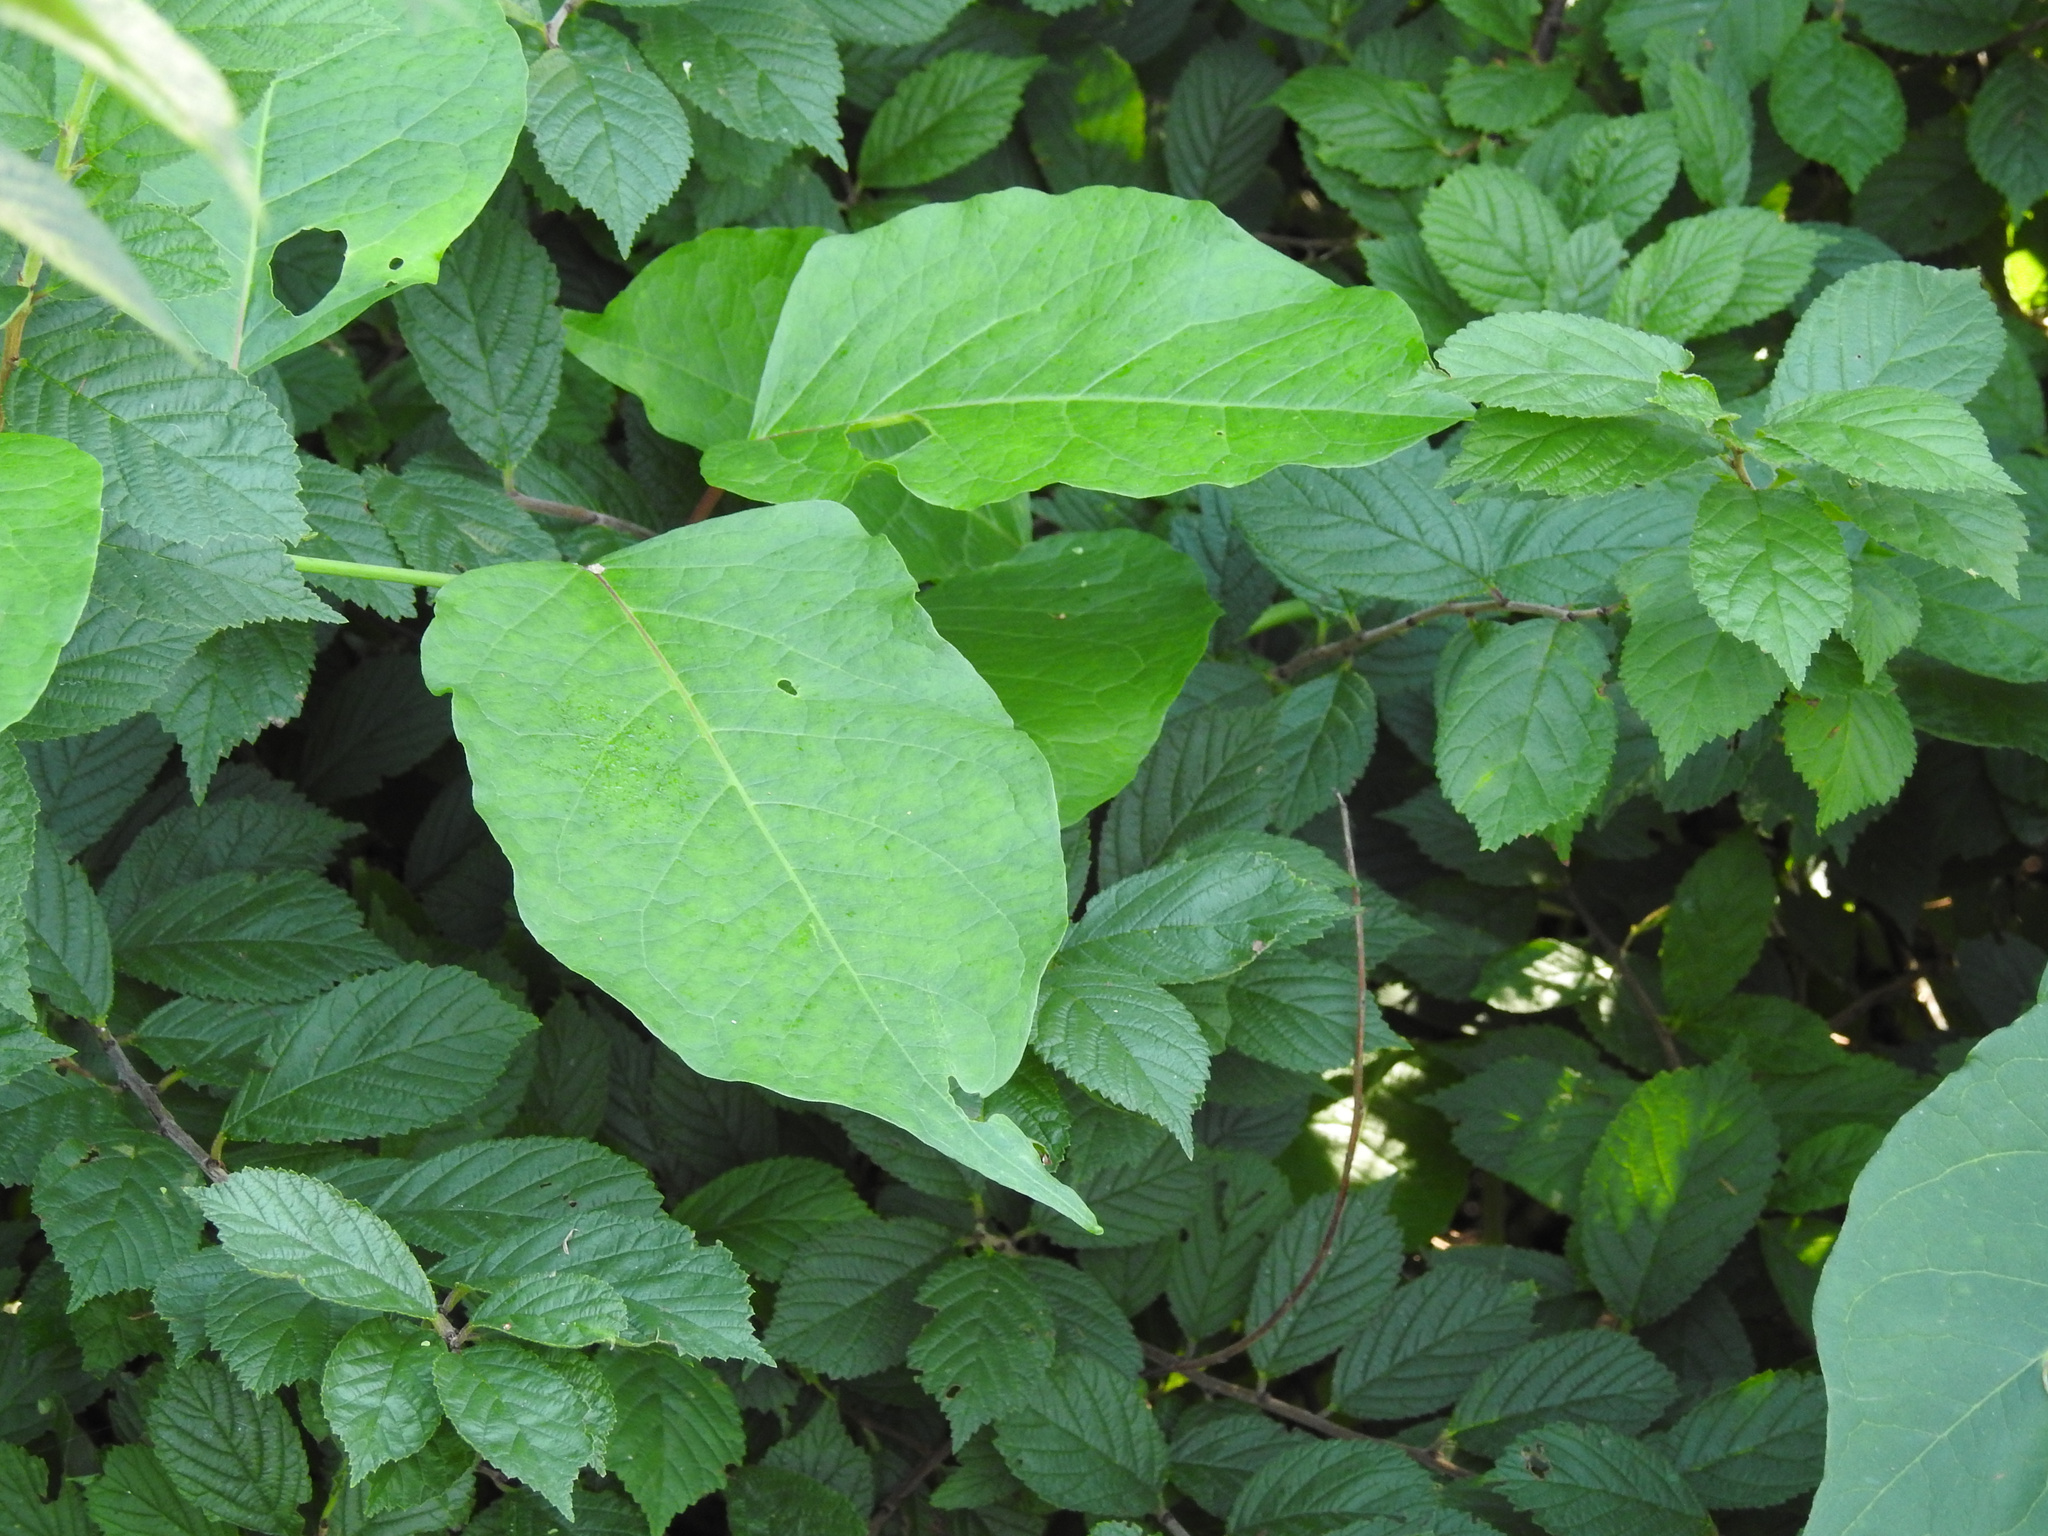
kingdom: Plantae
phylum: Tracheophyta
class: Magnoliopsida
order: Caryophyllales
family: Polygonaceae
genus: Reynoutria
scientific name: Reynoutria japonica
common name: Japanese knotweed
